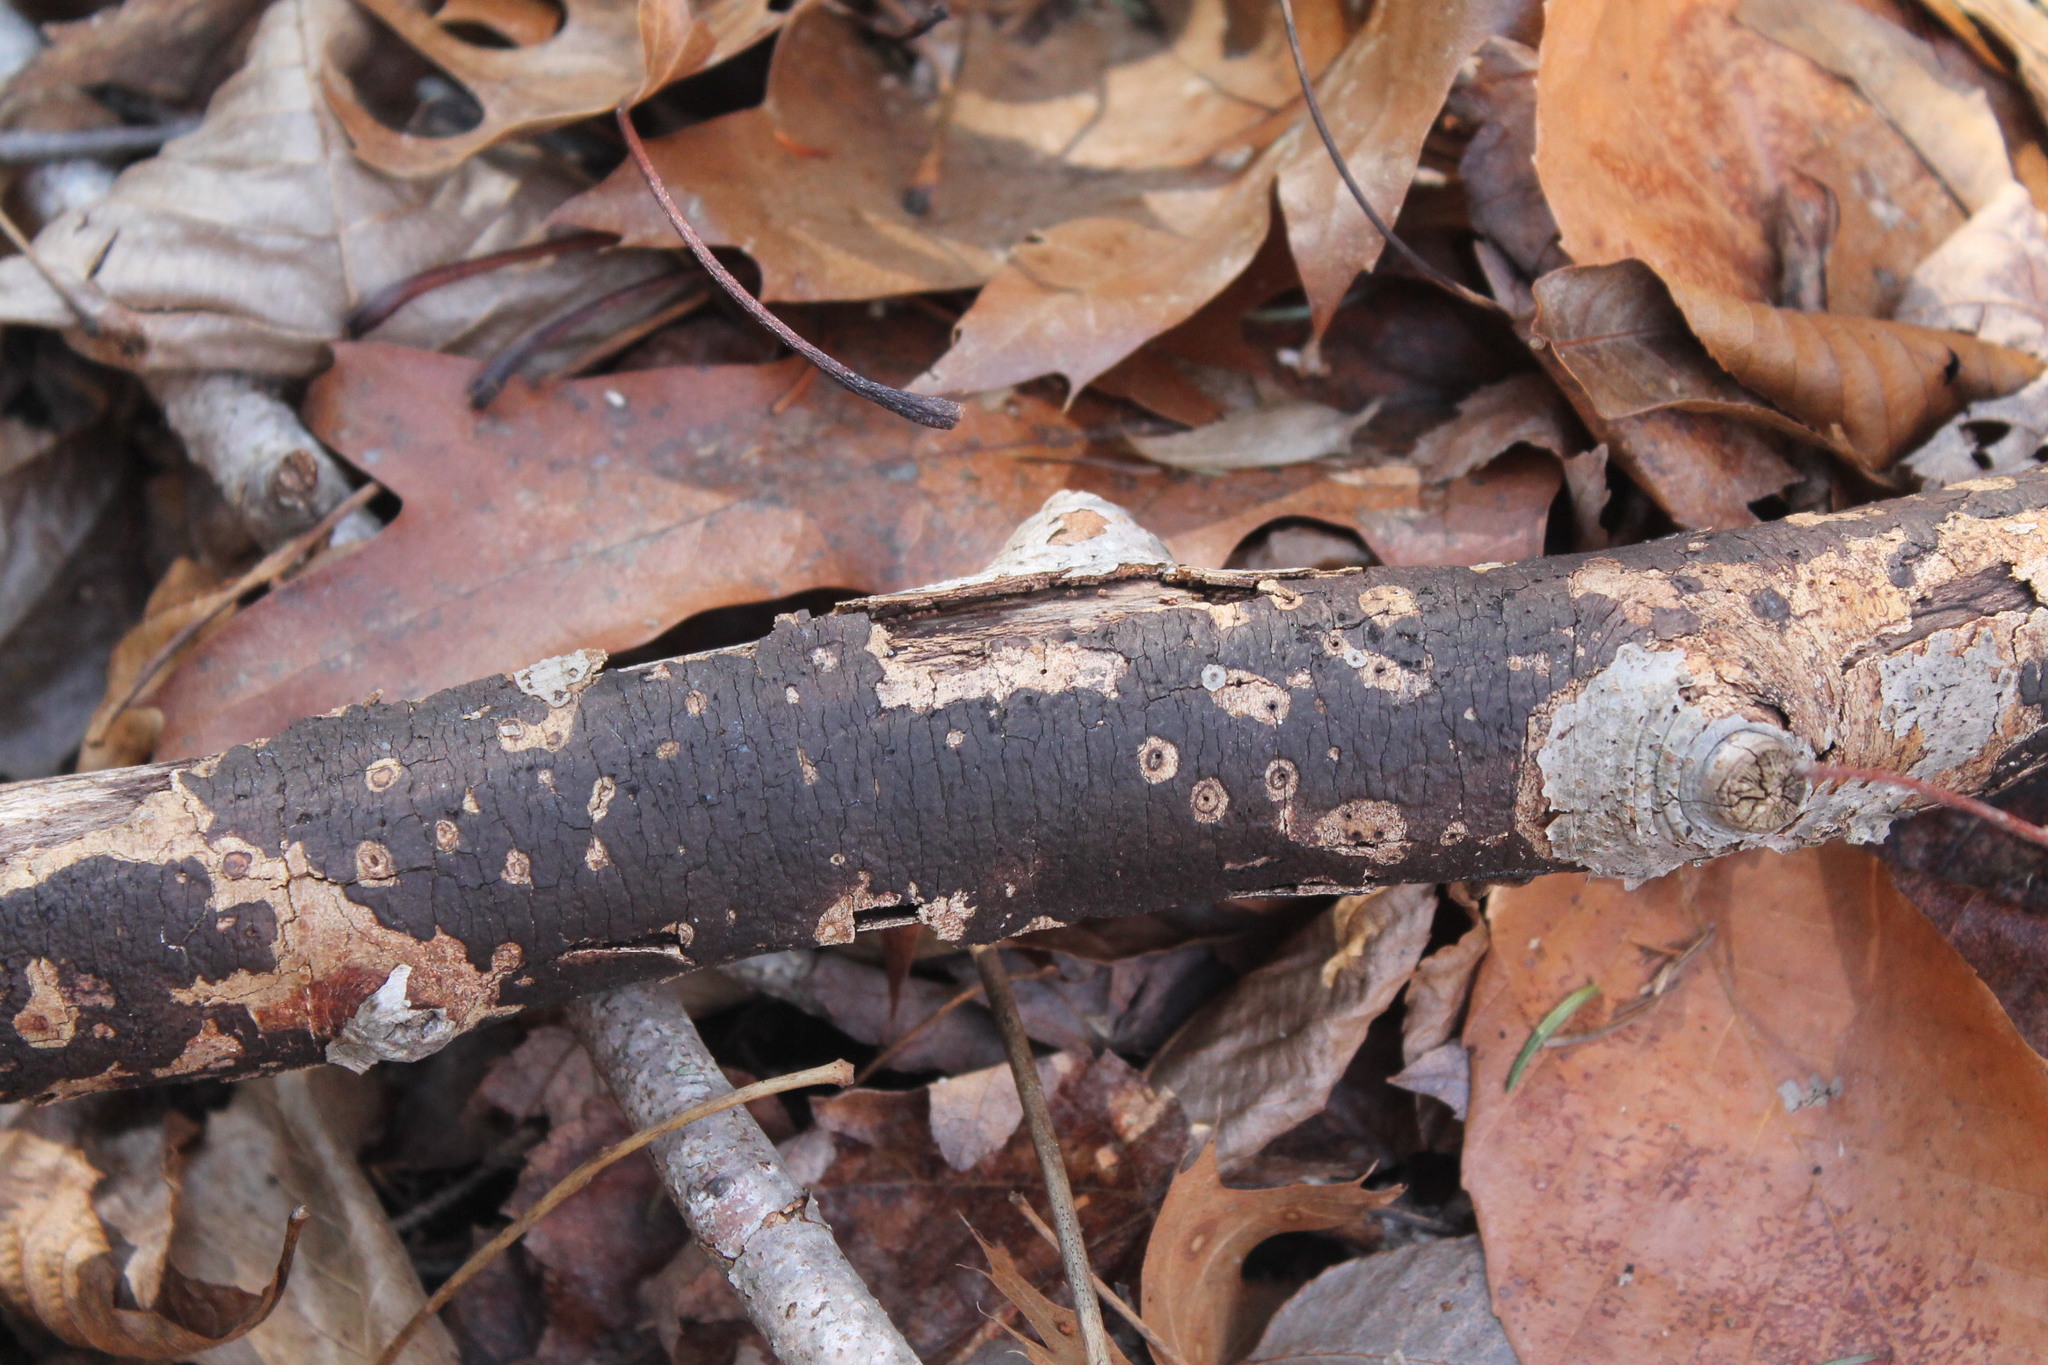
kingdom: Fungi
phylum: Ascomycota
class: Sordariomycetes
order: Xylariales
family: Diatrypaceae
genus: Diatrype
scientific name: Diatrype stigma
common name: Common tarcrust
